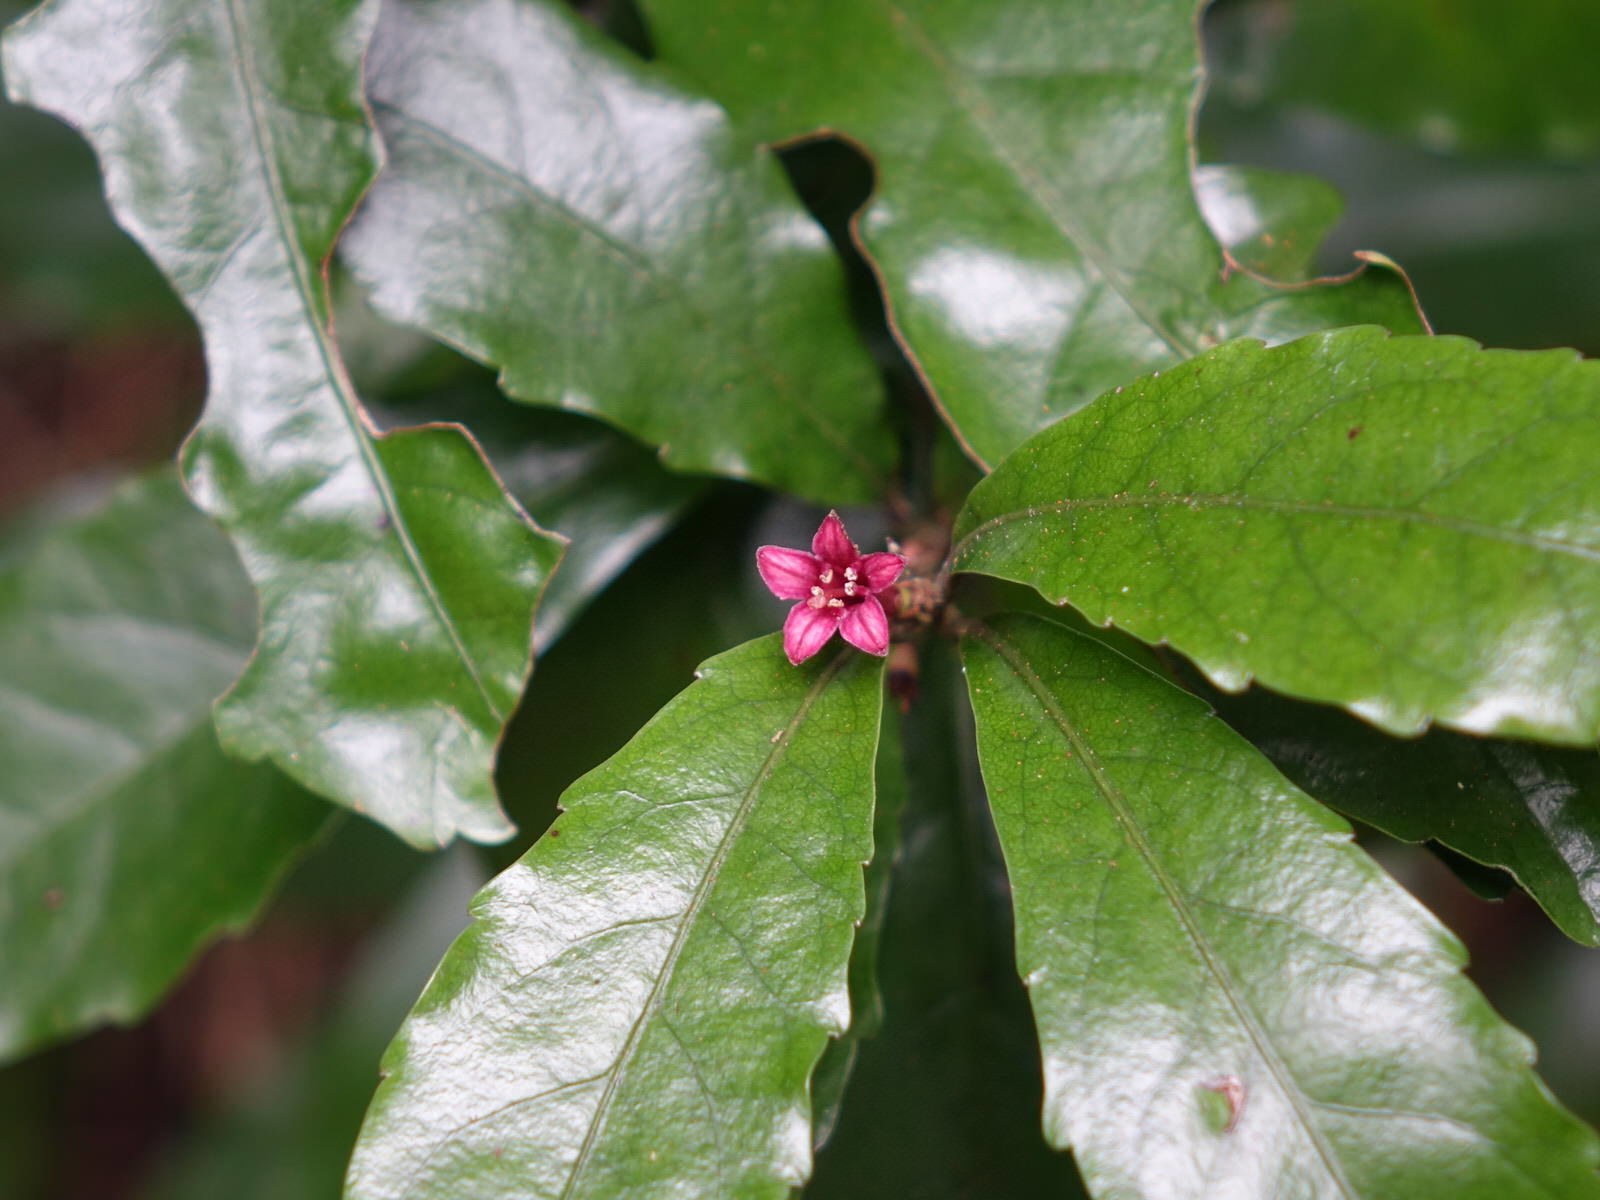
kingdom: Plantae
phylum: Tracheophyta
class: Magnoliopsida
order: Asterales
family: Alseuosmiaceae
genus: Alseuosmia
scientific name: Alseuosmia macrophylla
